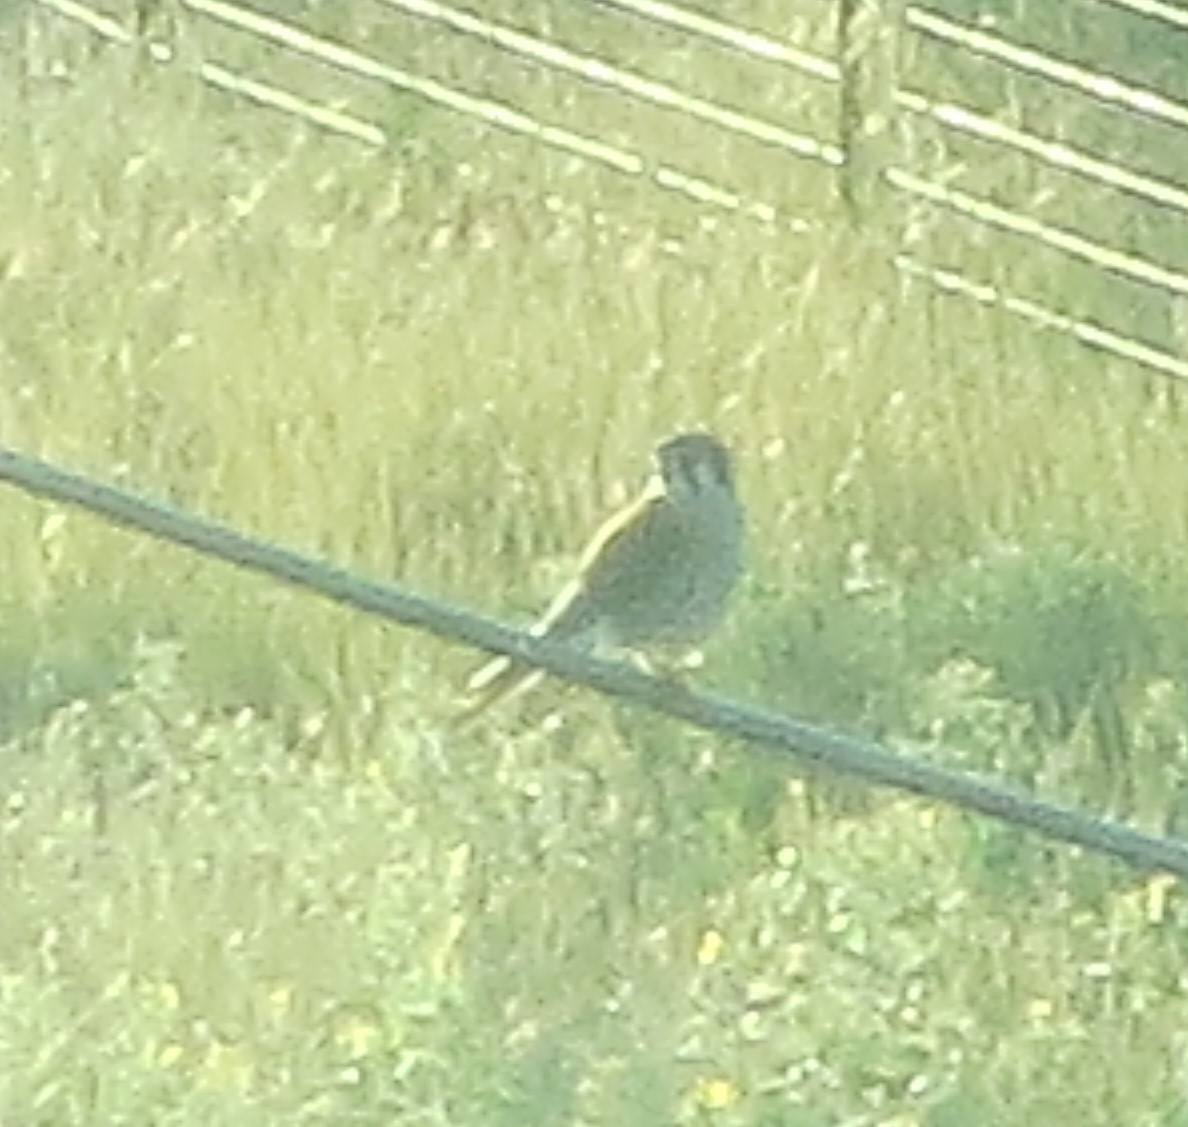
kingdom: Animalia
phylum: Chordata
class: Aves
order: Falconiformes
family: Falconidae
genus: Falco
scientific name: Falco sparverius
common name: American kestrel
